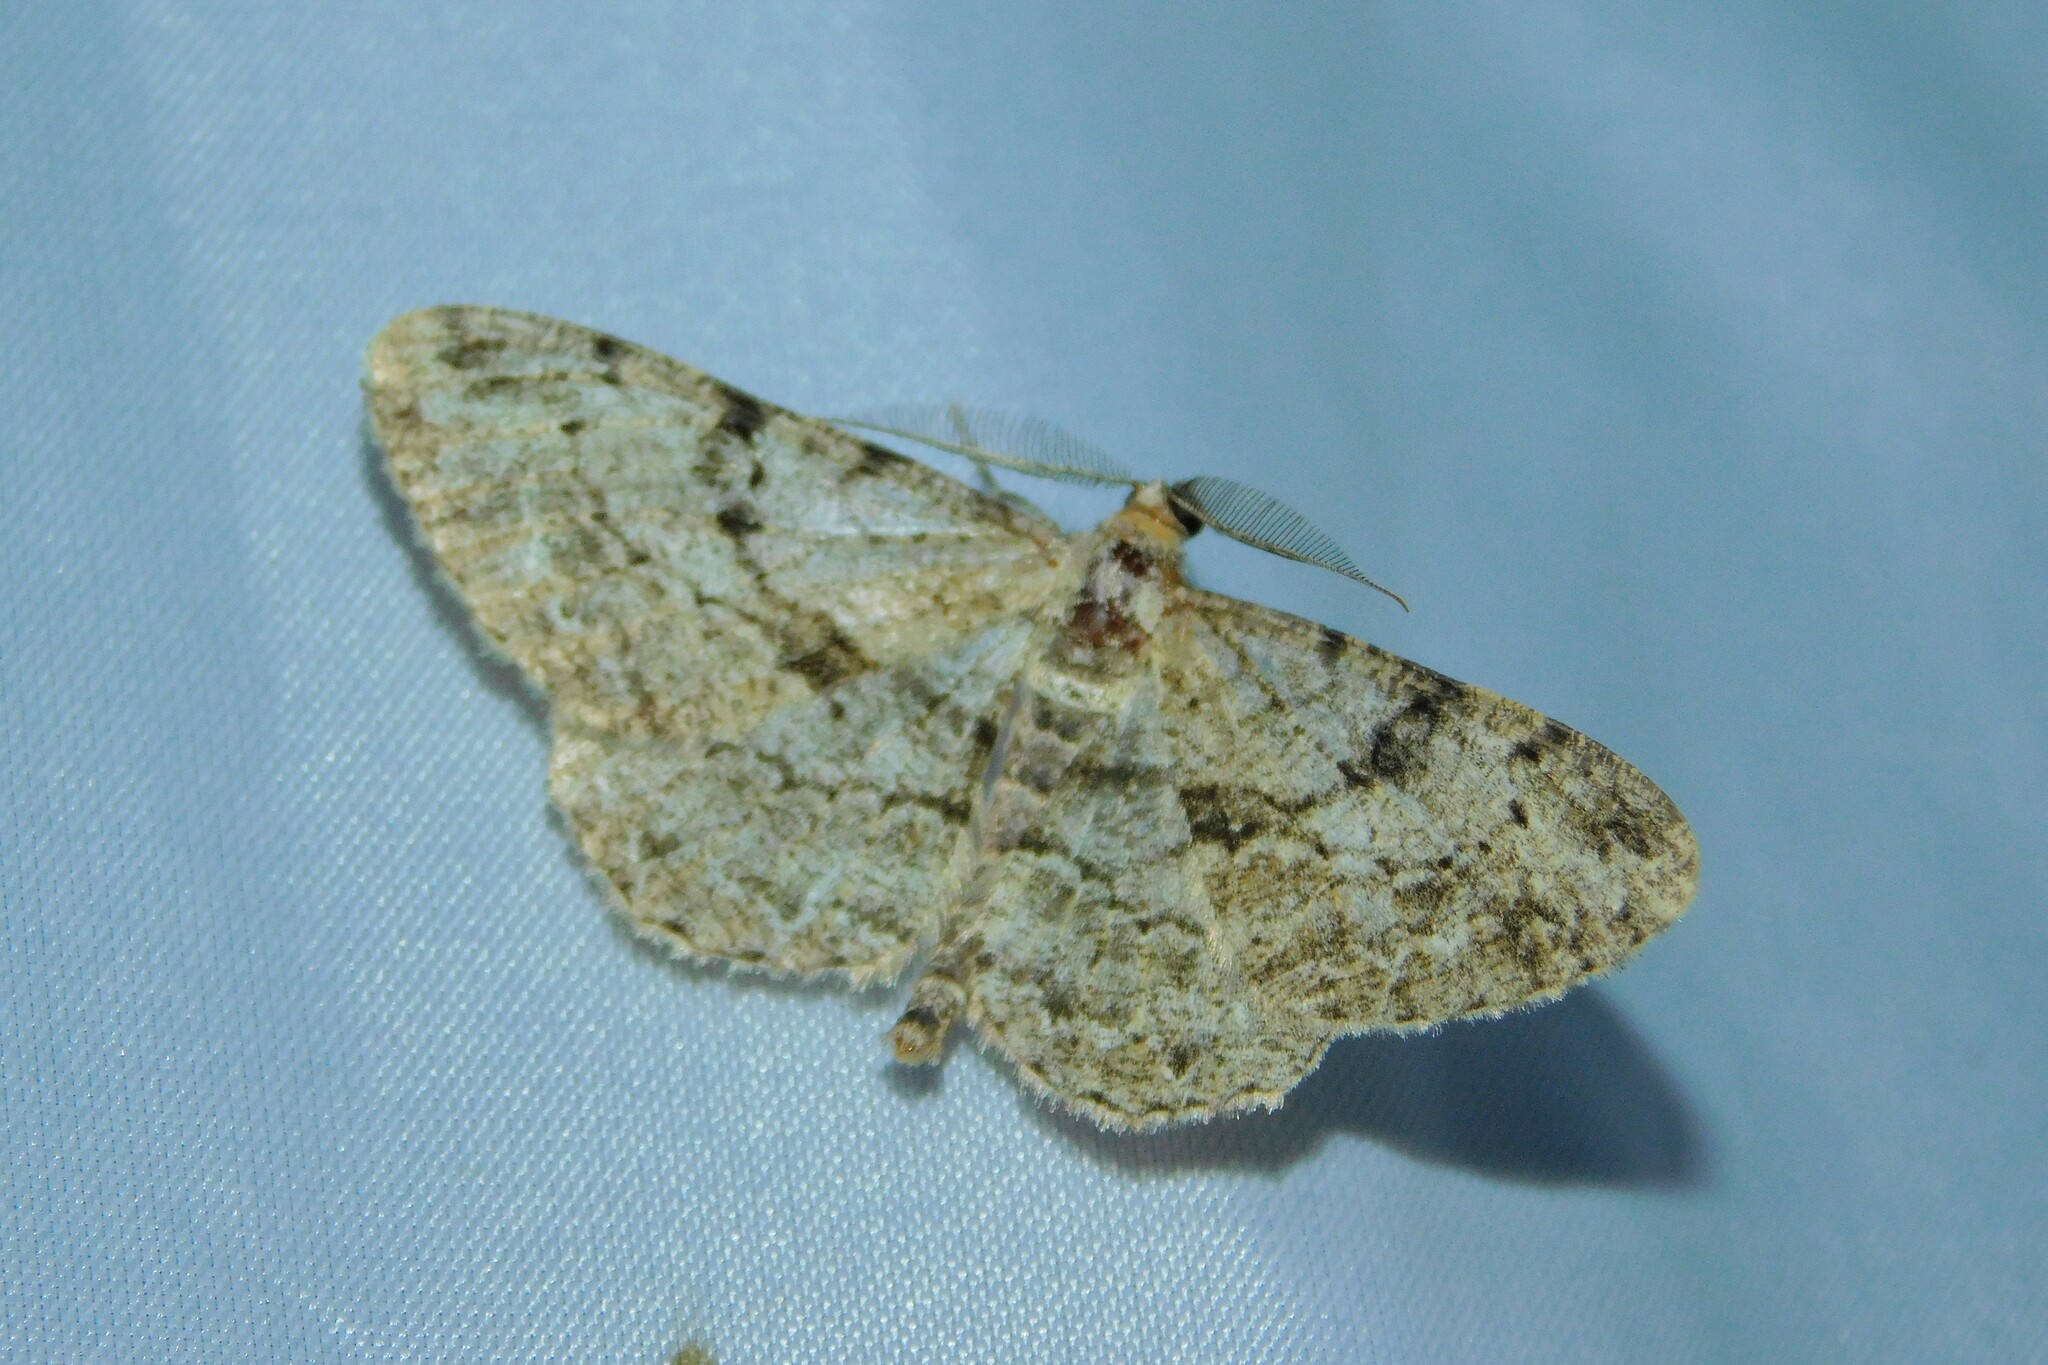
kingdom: Animalia
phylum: Arthropoda
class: Insecta
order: Lepidoptera
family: Geometridae
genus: Peribatodes
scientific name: Peribatodes rhomboidaria
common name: Willow beauty
